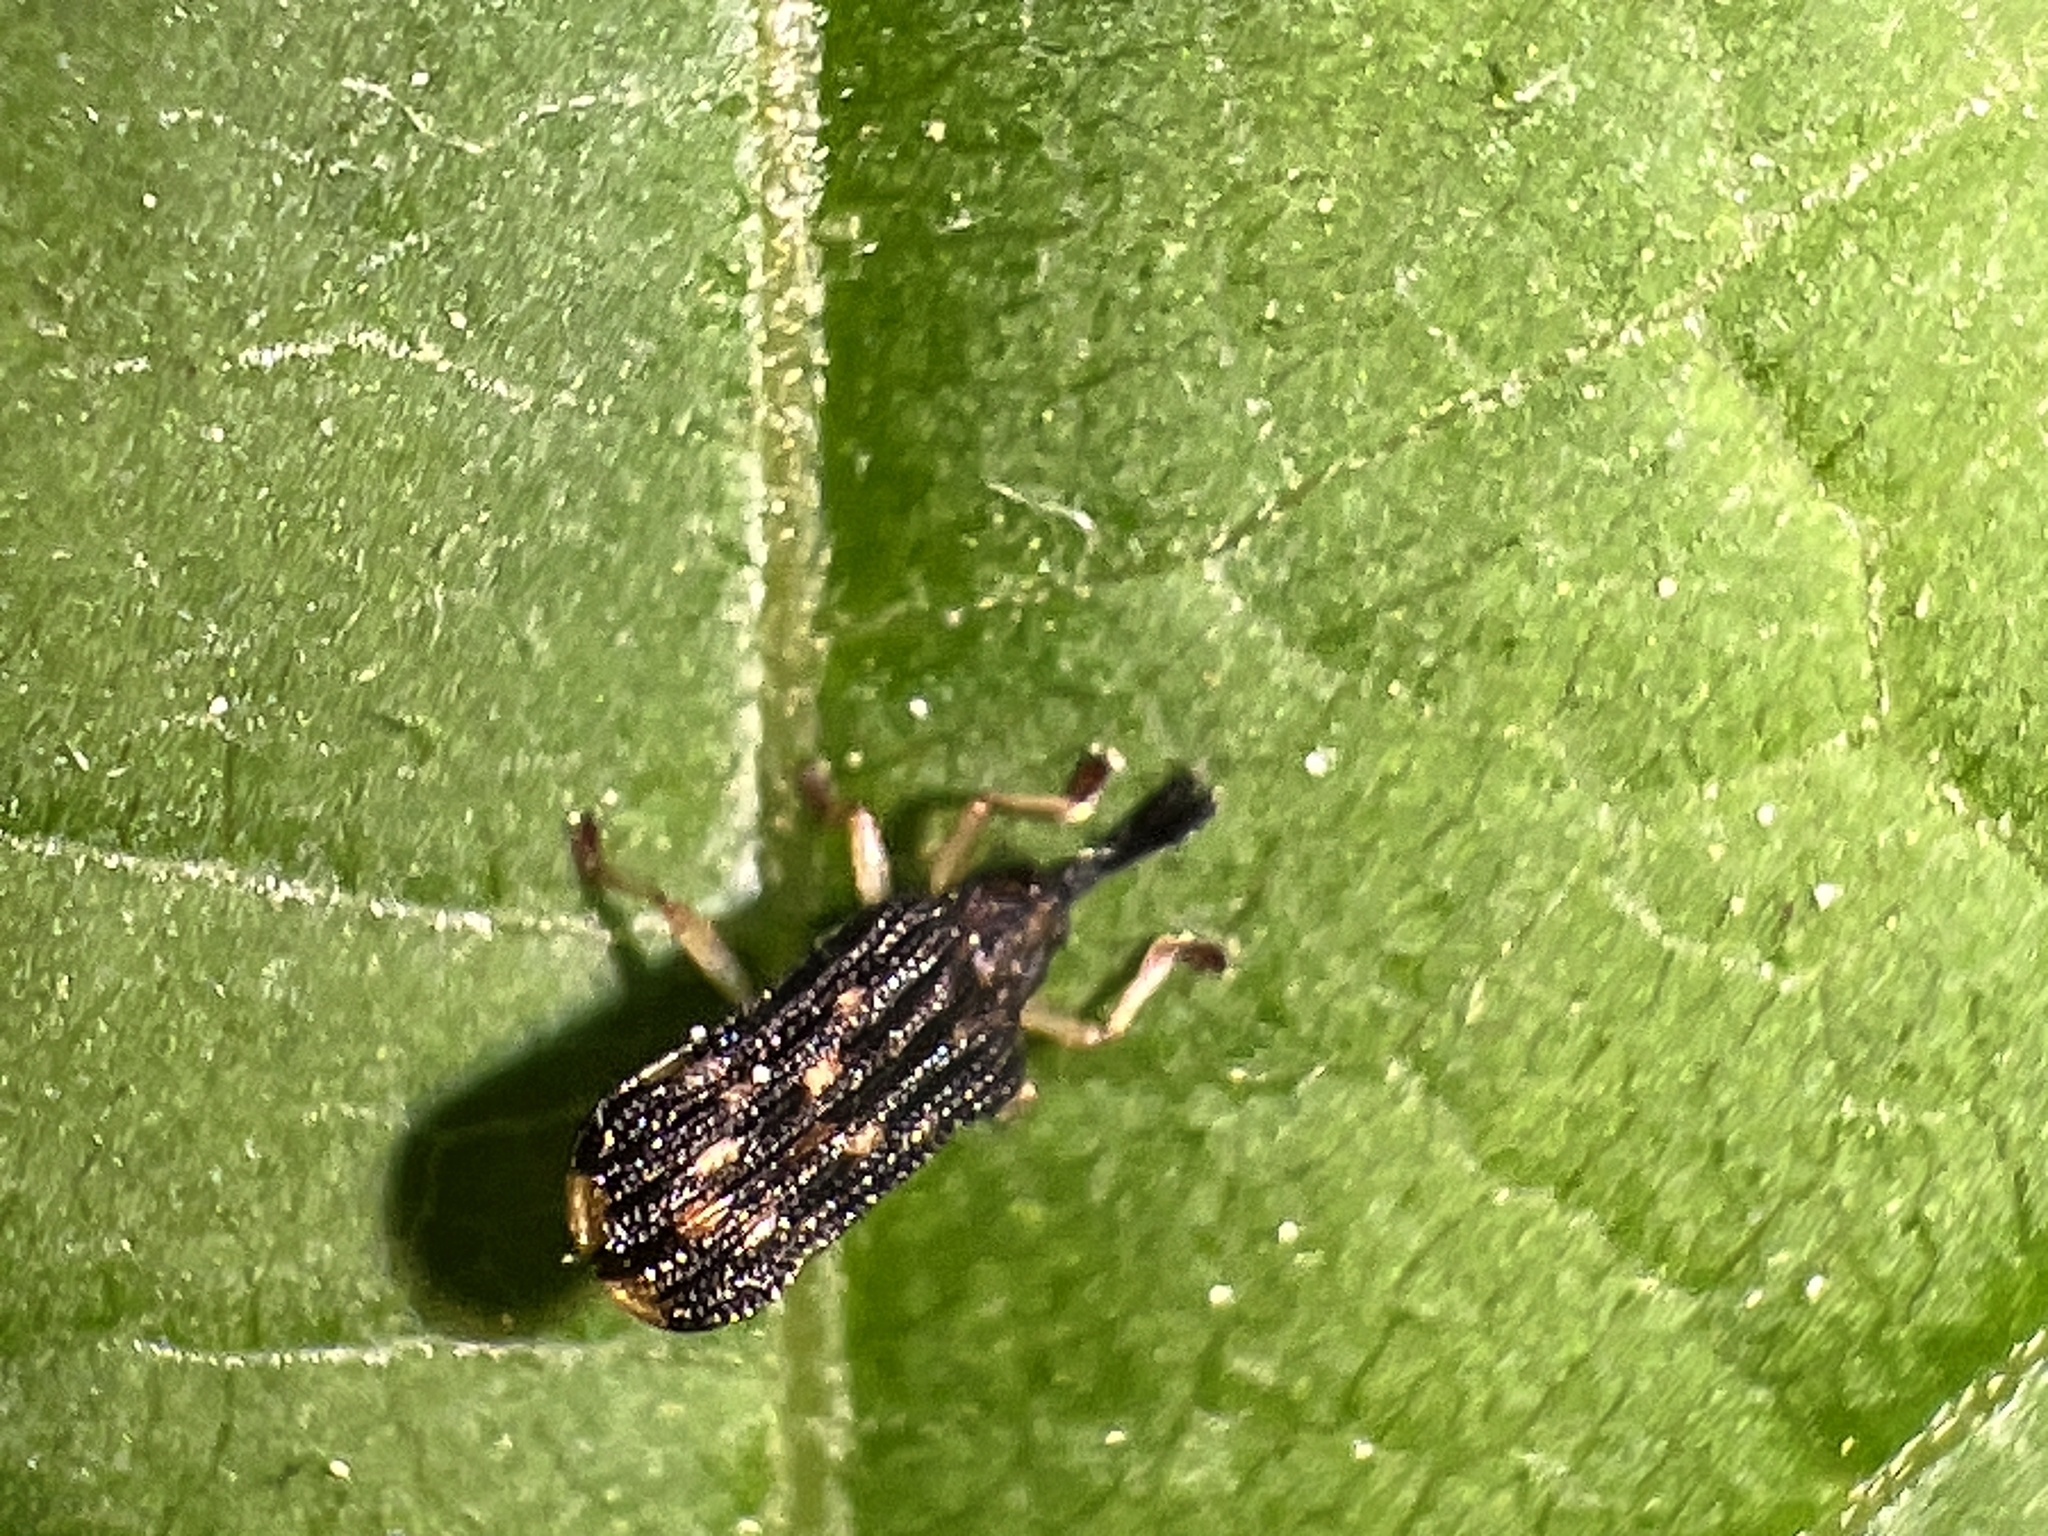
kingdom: Animalia
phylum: Arthropoda
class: Insecta
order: Coleoptera
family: Chrysomelidae
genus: Sumitrosis
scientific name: Sumitrosis inaequalis
